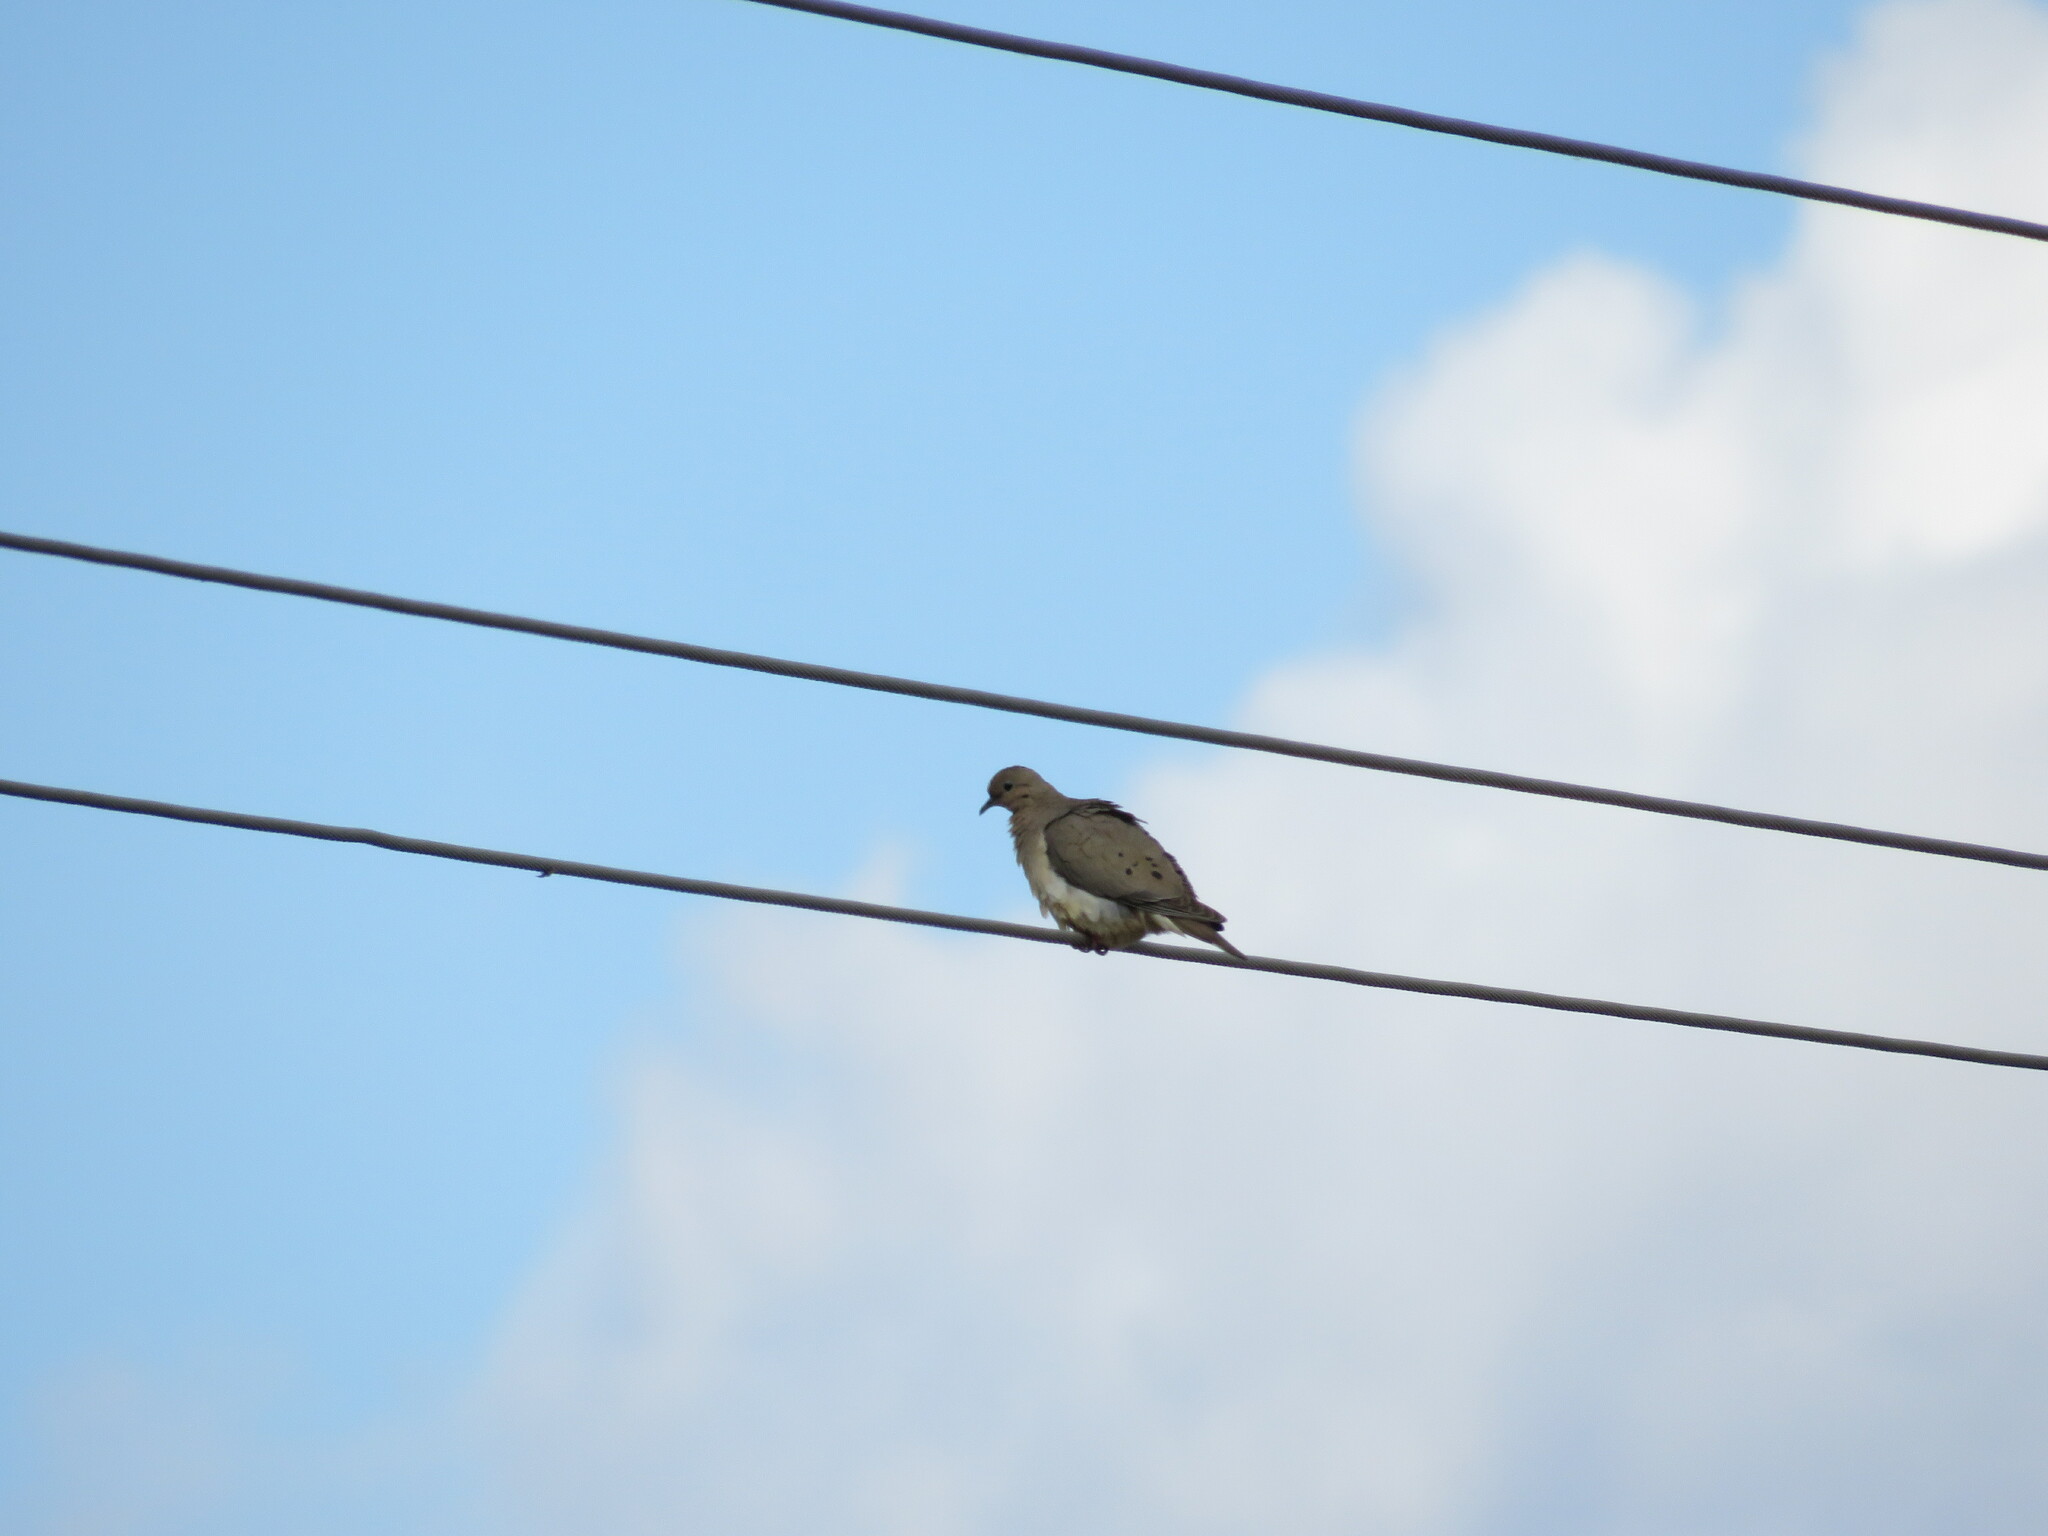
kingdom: Animalia
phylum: Chordata
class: Aves
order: Columbiformes
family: Columbidae
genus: Zenaida
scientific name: Zenaida auriculata
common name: Eared dove
